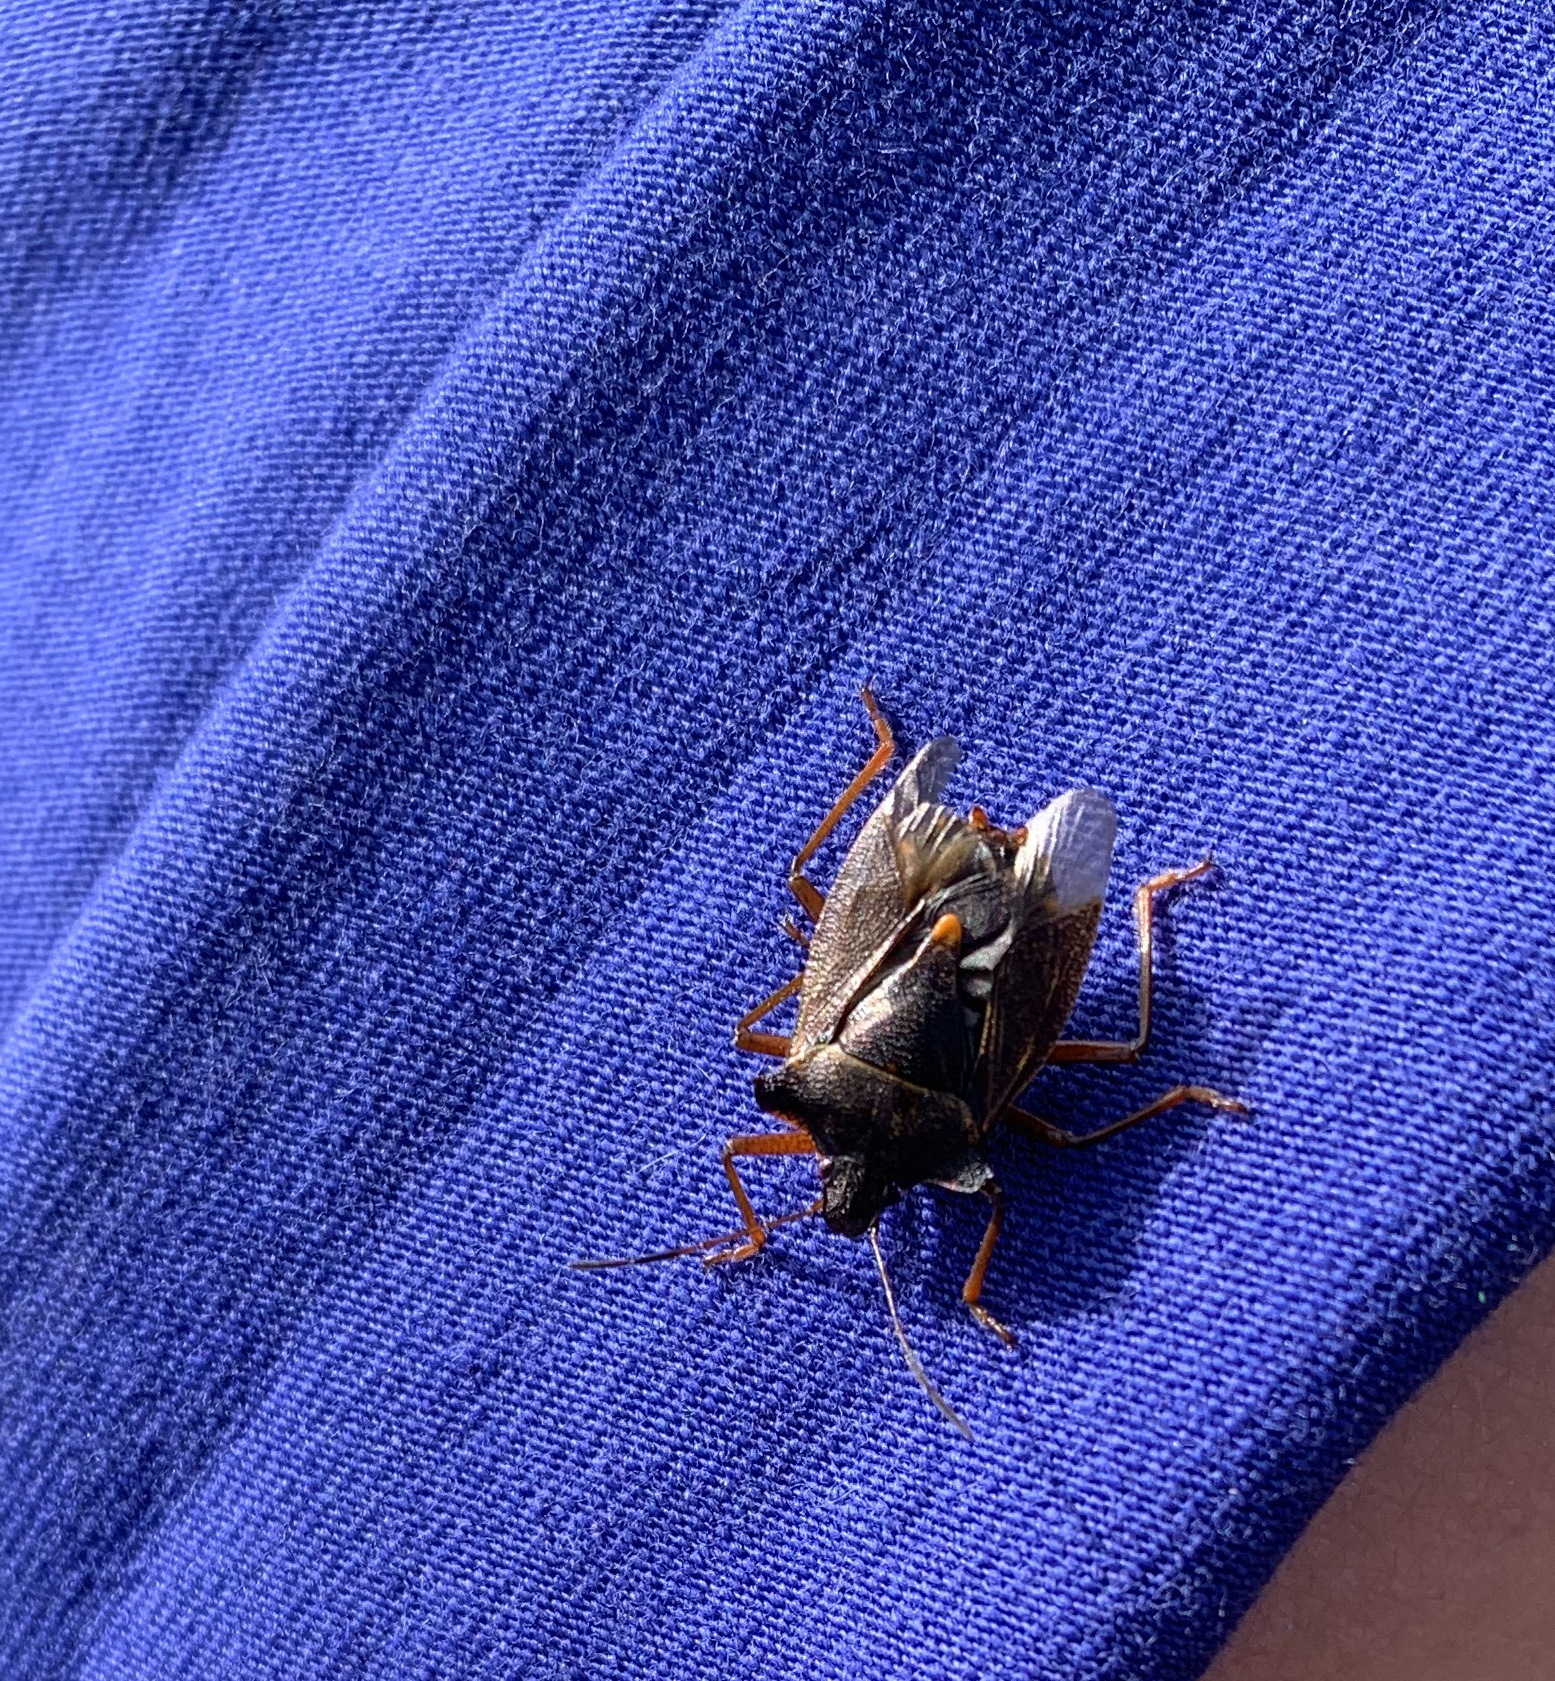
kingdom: Animalia
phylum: Arthropoda
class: Insecta
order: Hemiptera
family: Pentatomidae
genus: Pentatoma
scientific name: Pentatoma rufipes
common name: Forest bug
